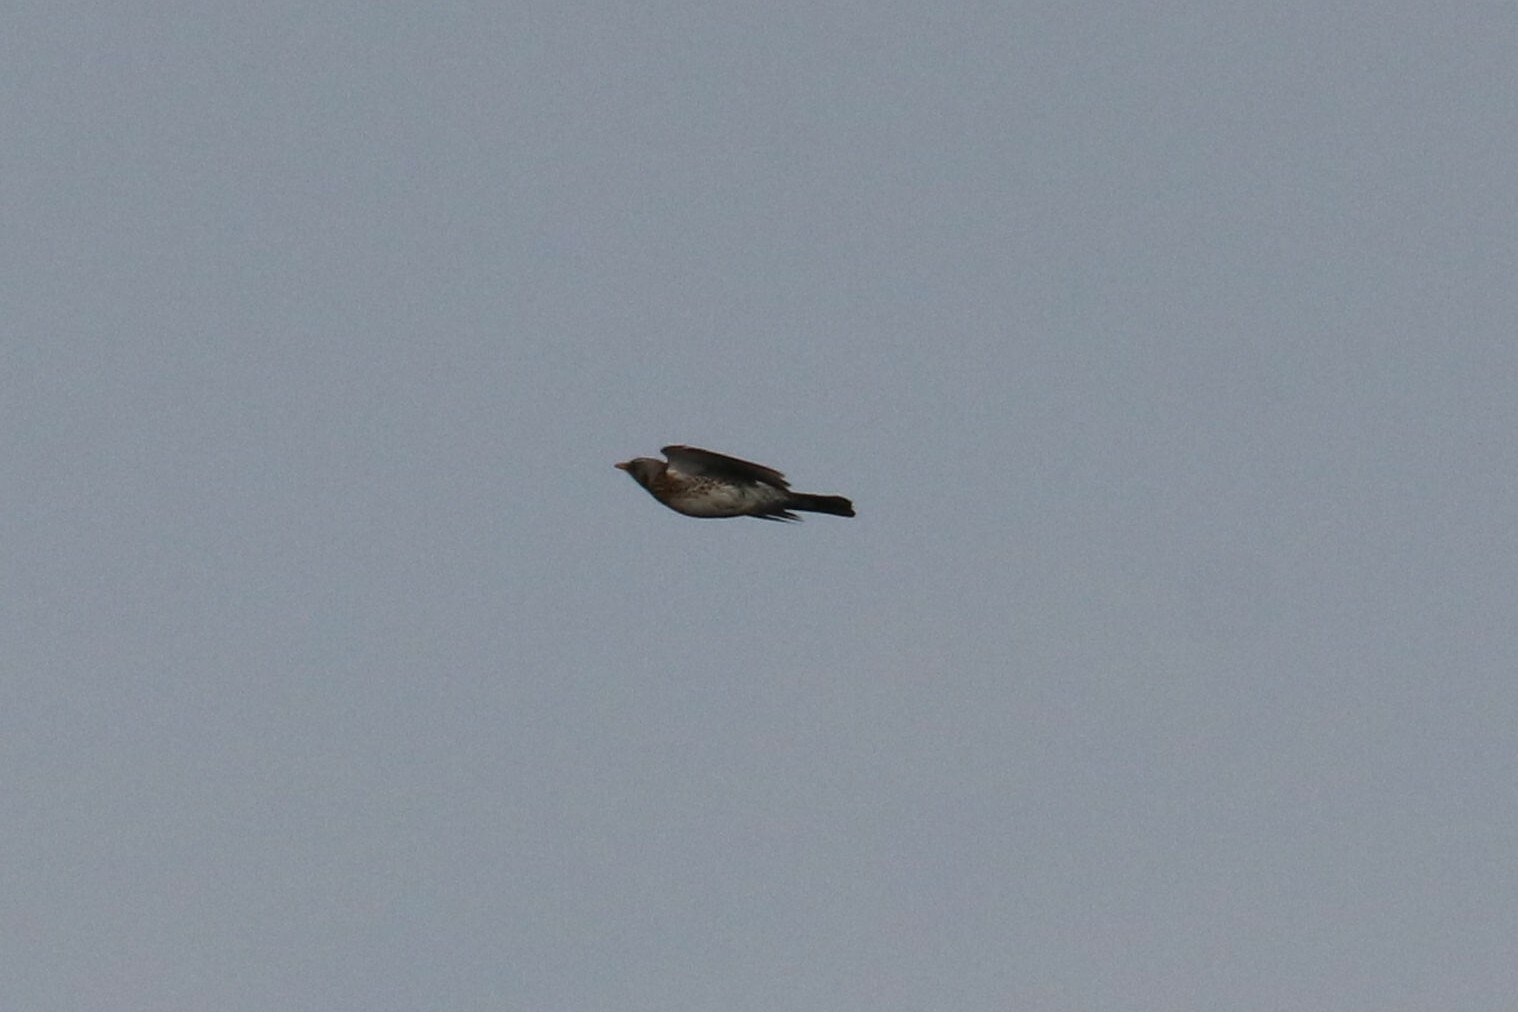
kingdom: Animalia
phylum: Chordata
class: Aves
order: Passeriformes
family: Turdidae
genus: Turdus
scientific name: Turdus pilaris
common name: Fieldfare
